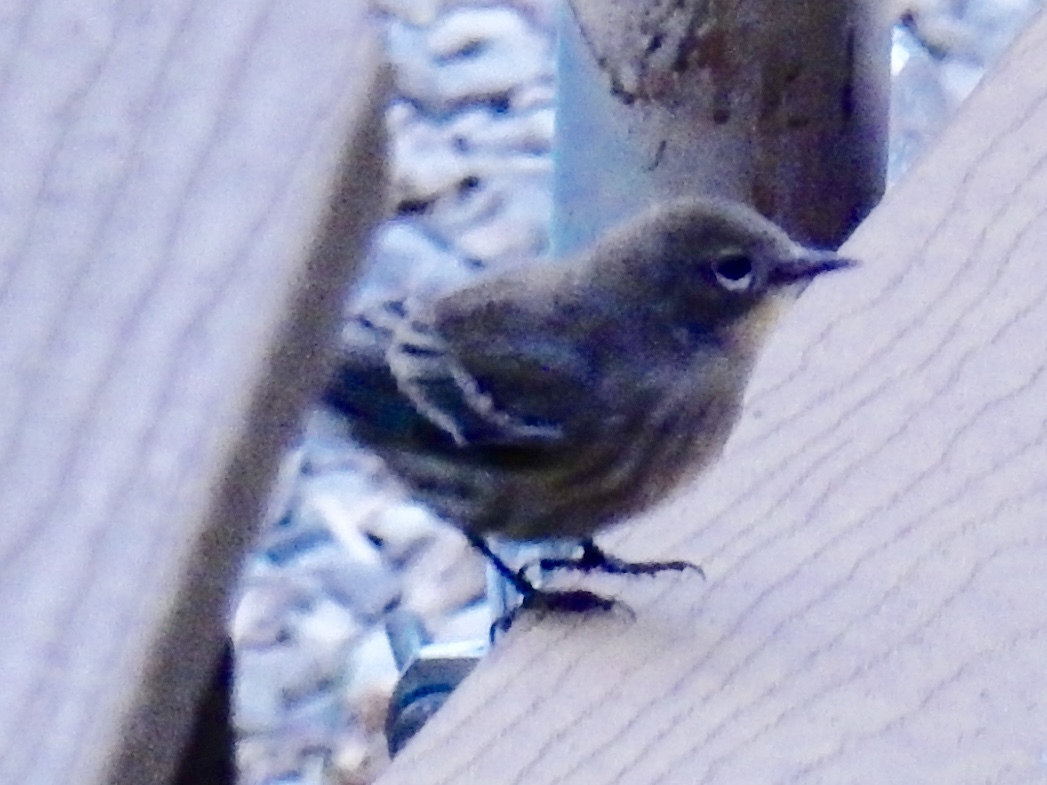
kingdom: Animalia
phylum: Chordata
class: Aves
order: Passeriformes
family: Parulidae
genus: Setophaga
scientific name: Setophaga coronata
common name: Myrtle warbler
